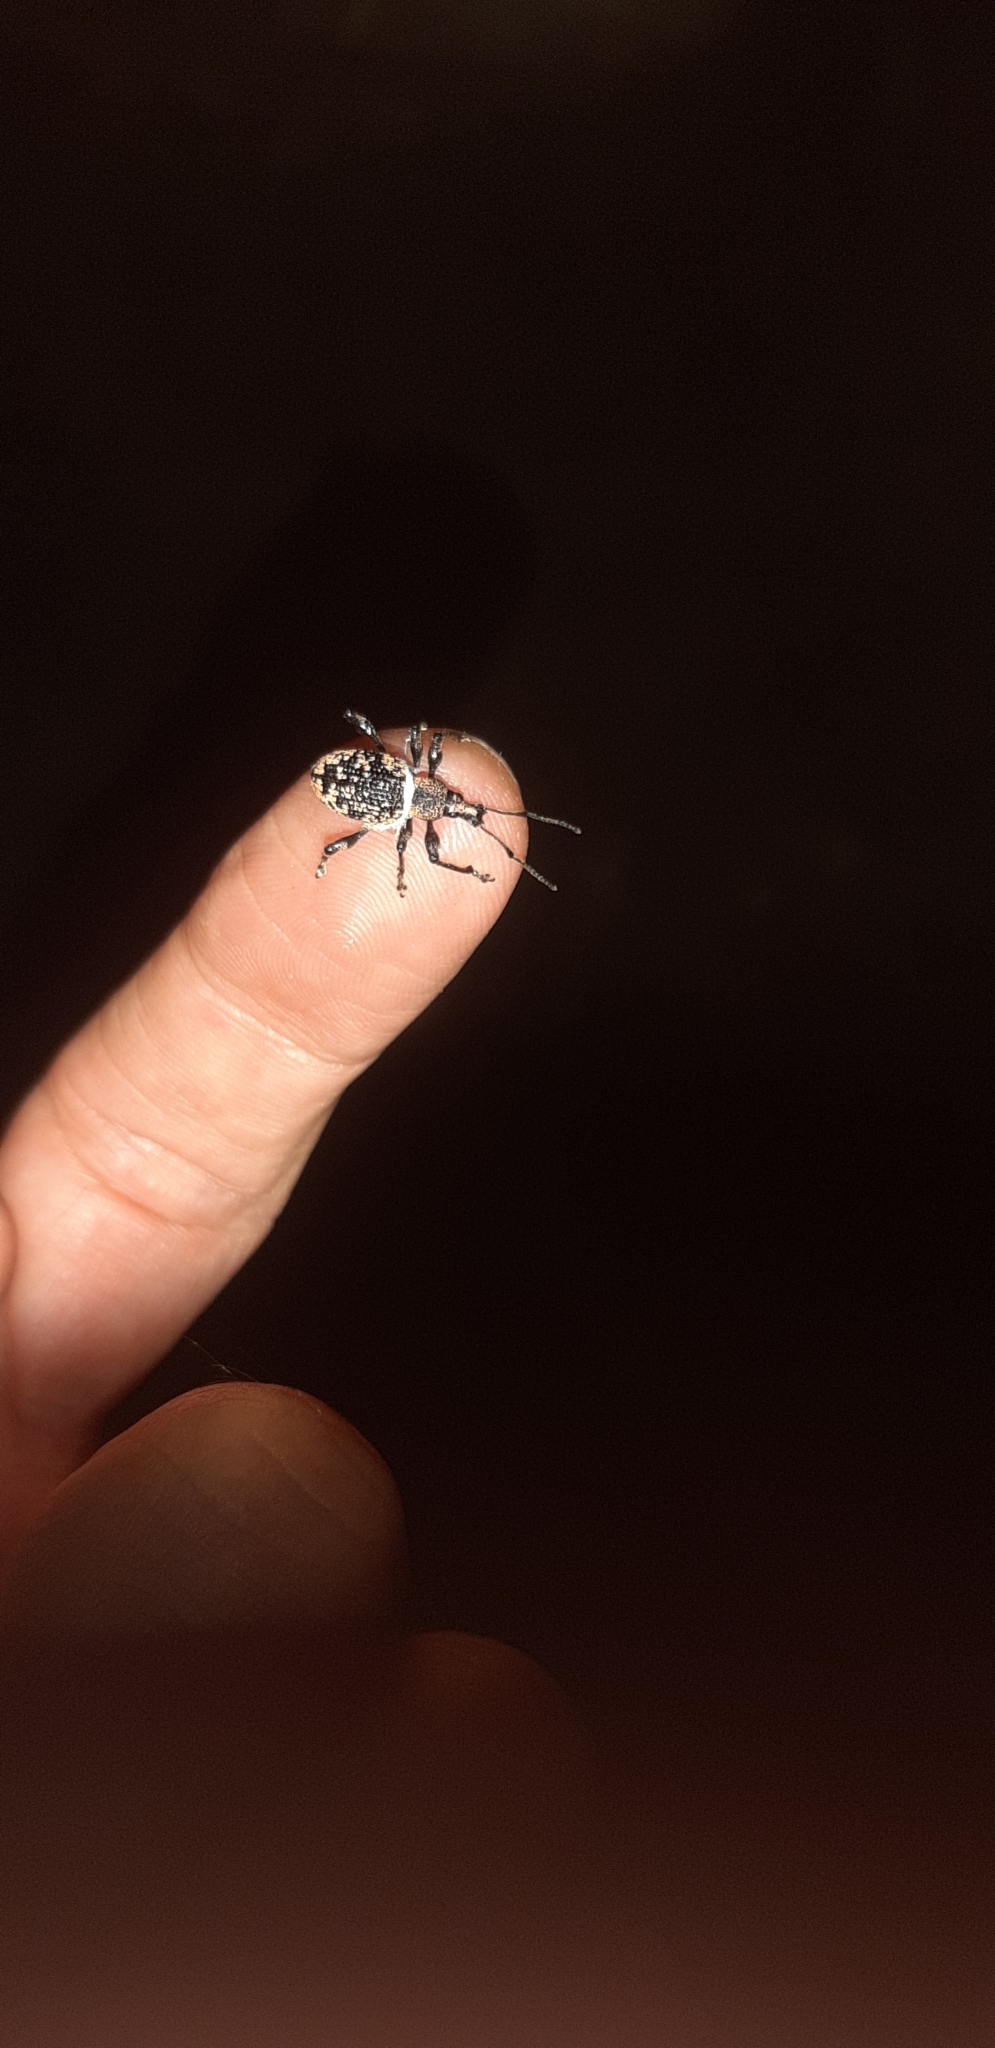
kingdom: Animalia
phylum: Arthropoda
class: Insecta
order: Coleoptera
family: Curculionidae
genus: Otiorhynchus
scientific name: Otiorhynchus corruptor
